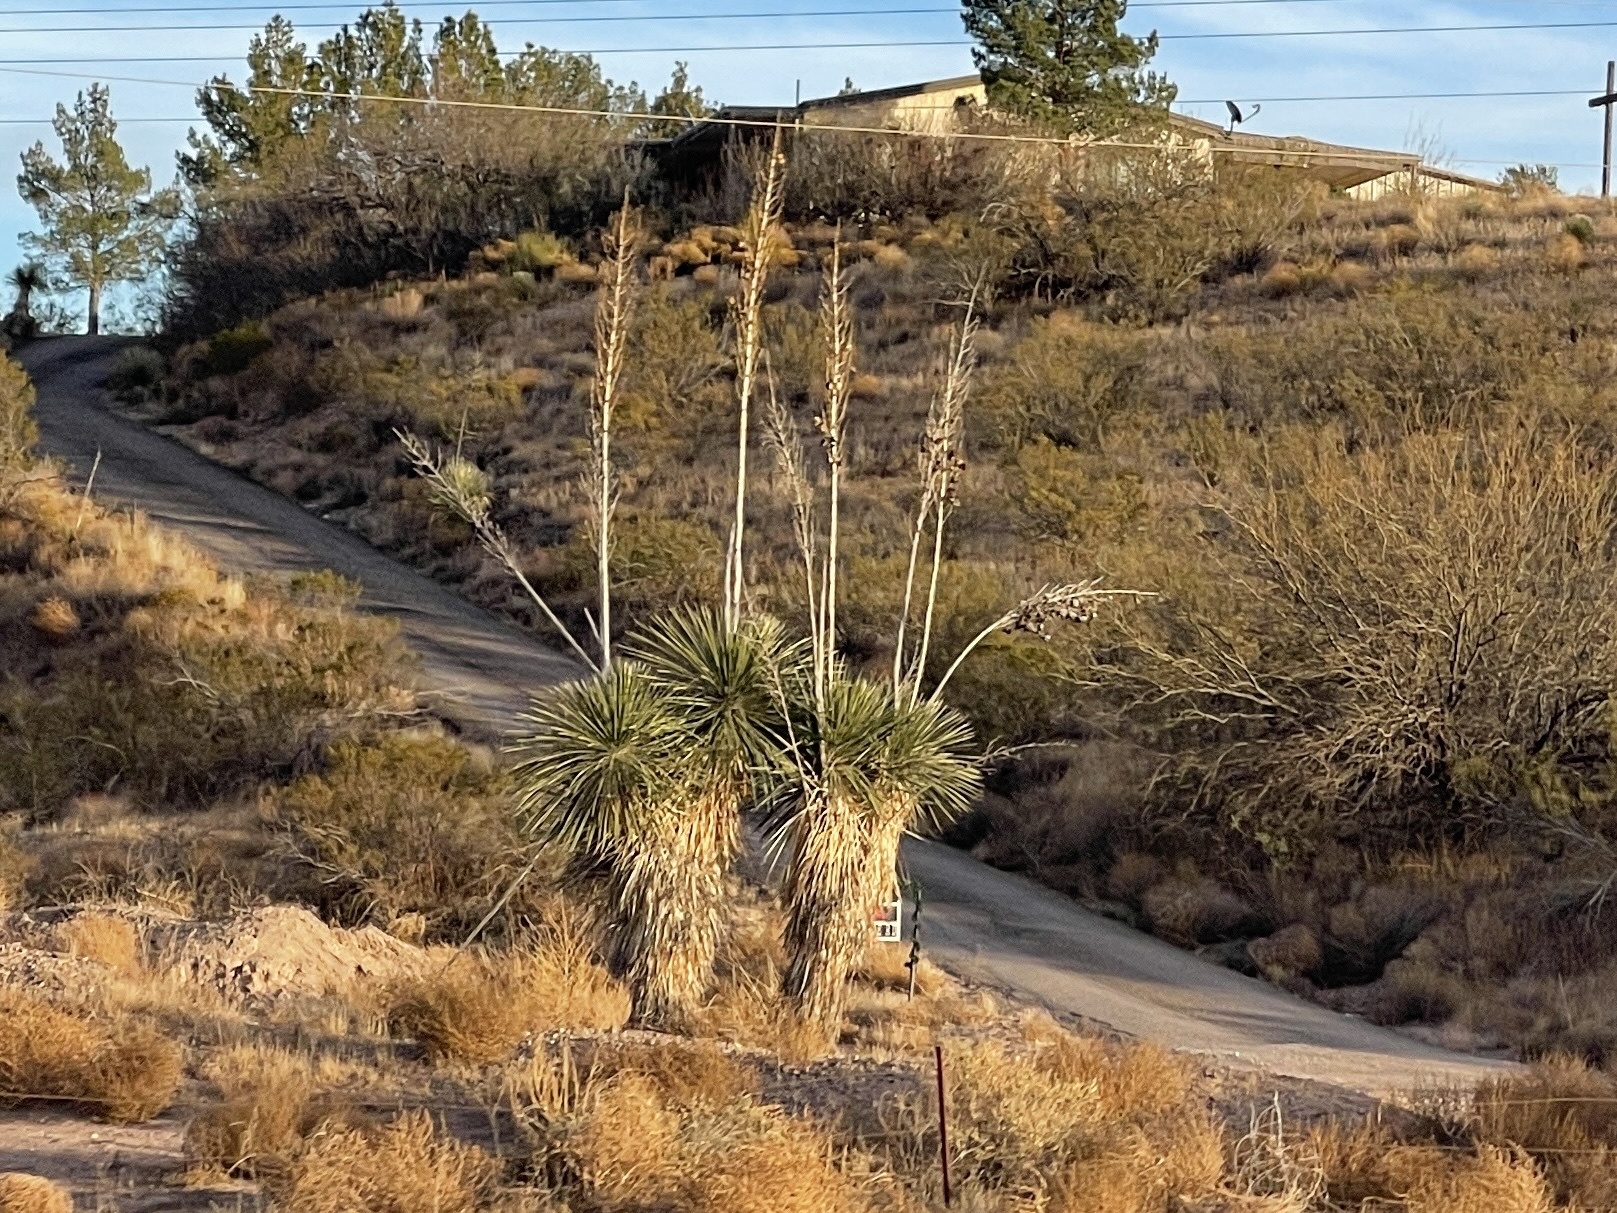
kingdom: Plantae
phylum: Tracheophyta
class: Liliopsida
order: Asparagales
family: Asparagaceae
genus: Yucca
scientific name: Yucca elata
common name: Palmella
